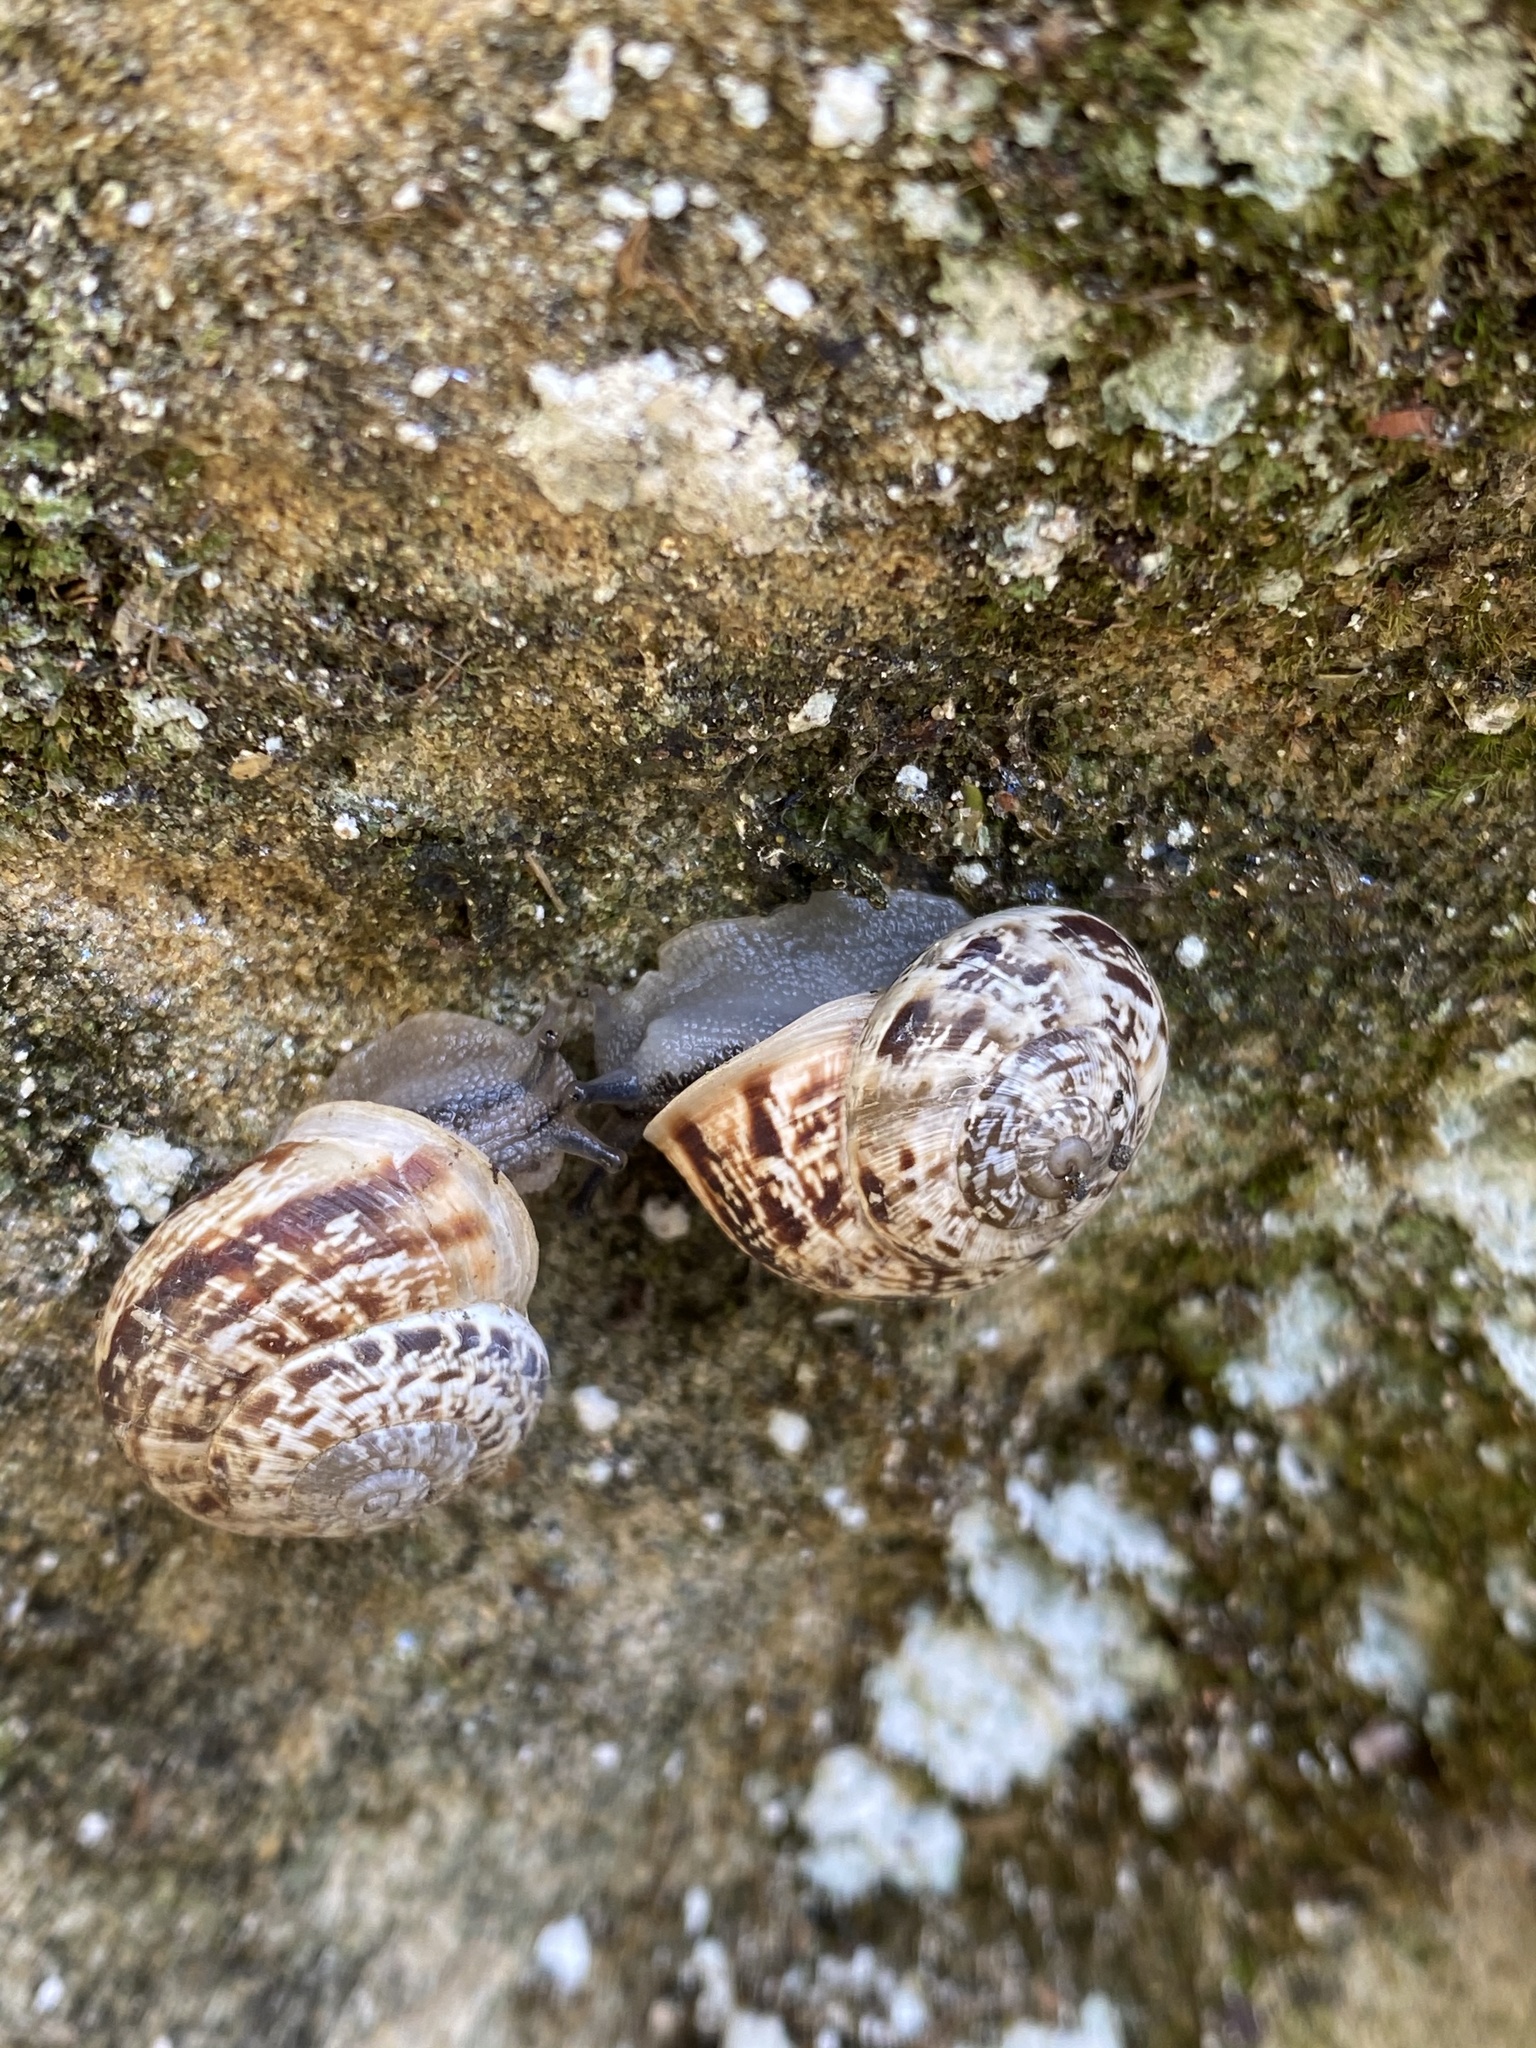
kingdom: Animalia
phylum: Mollusca
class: Gastropoda
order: Stylommatophora
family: Helicidae
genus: Marmorana
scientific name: Marmorana serpentina
